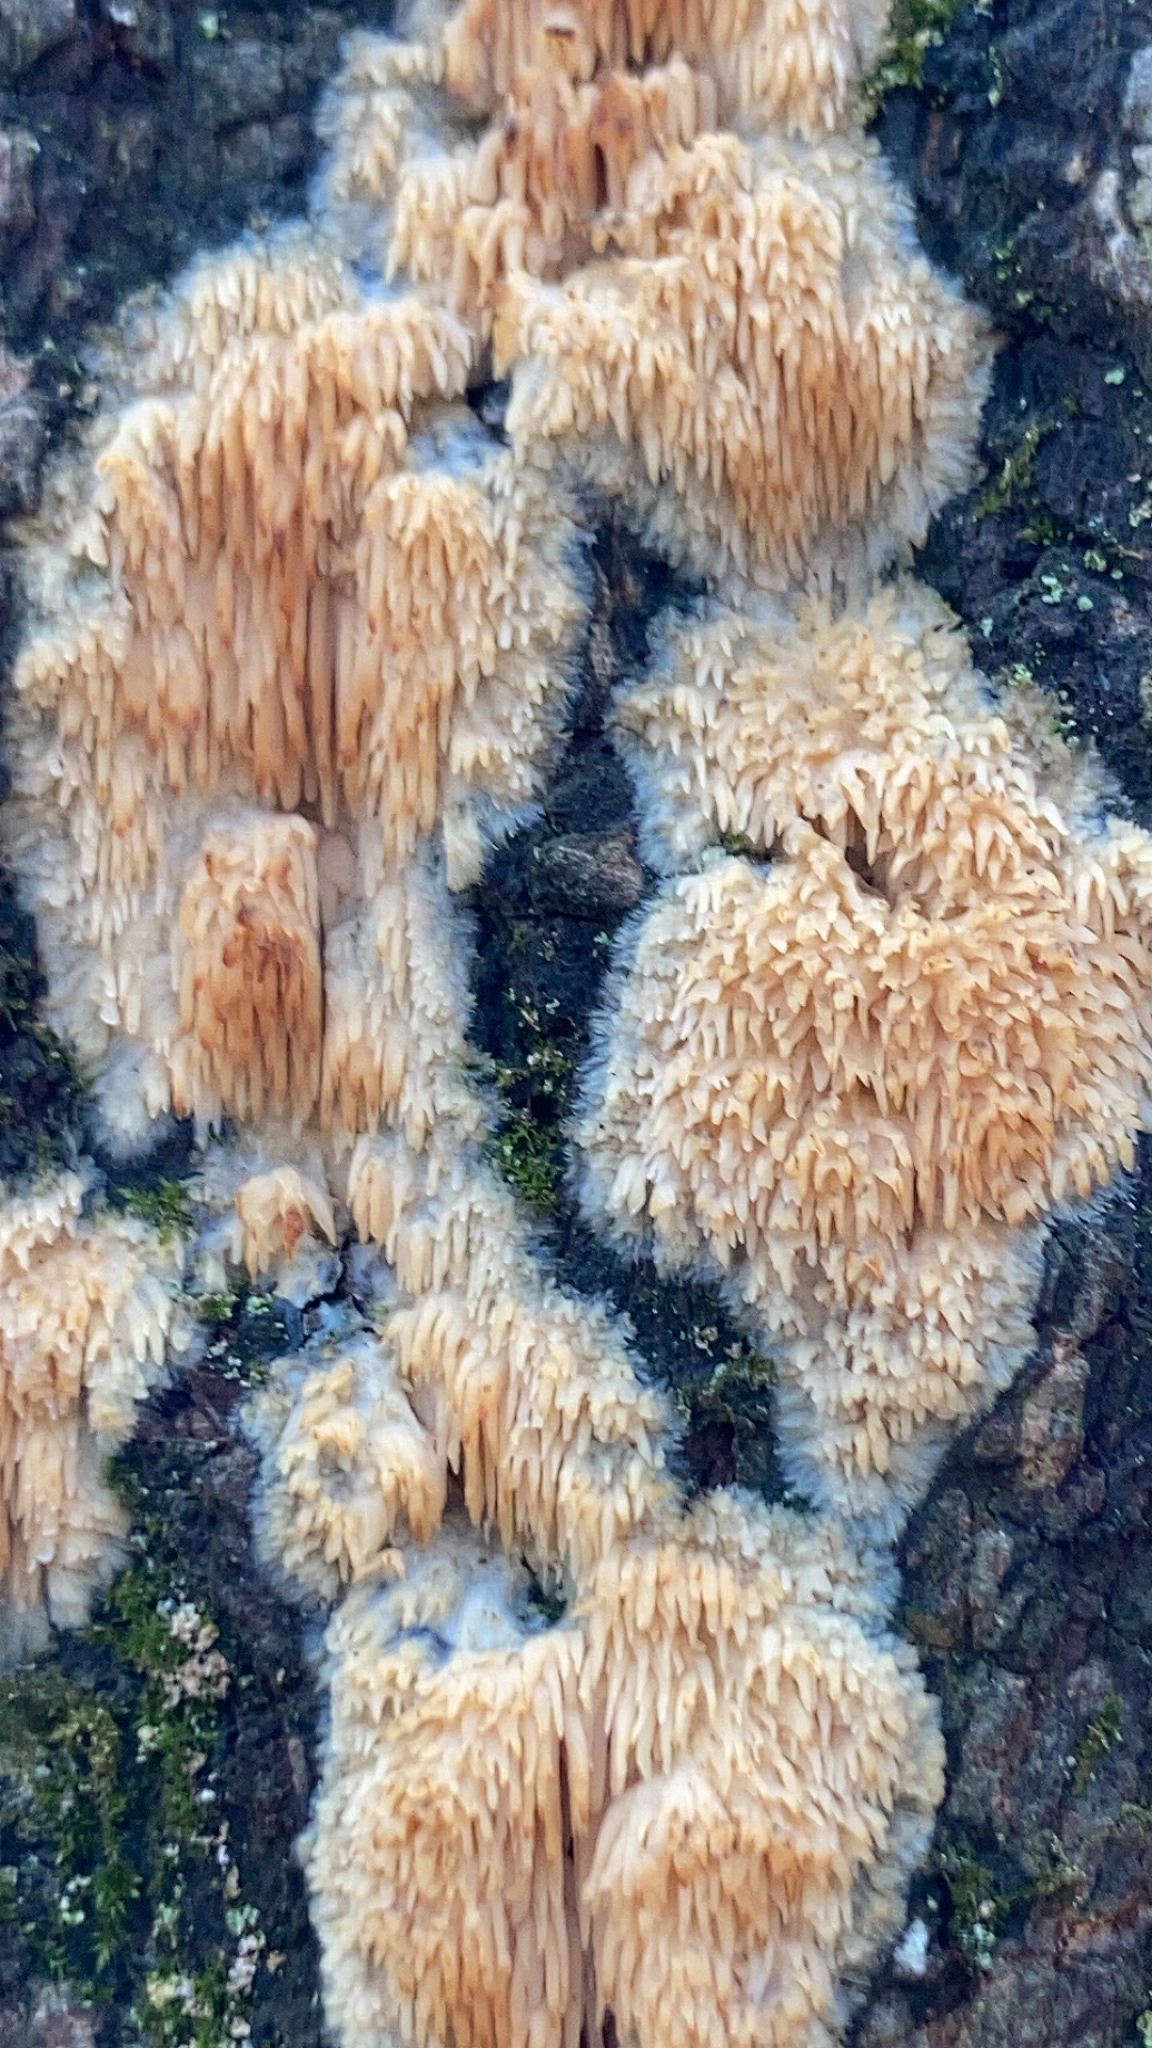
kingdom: Fungi
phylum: Basidiomycota
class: Agaricomycetes
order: Agaricales
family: Radulomycetaceae
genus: Radulomyces
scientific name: Radulomyces copelandii
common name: Asian beauty
